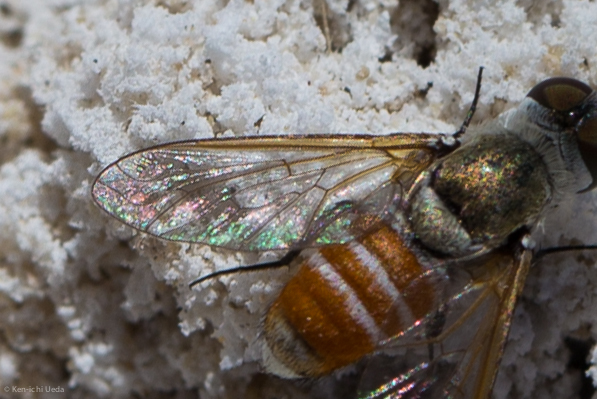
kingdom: Animalia
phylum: Arthropoda
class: Insecta
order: Diptera
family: Bombyliidae
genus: Chrysanthrax
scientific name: Chrysanthrax crocinus
